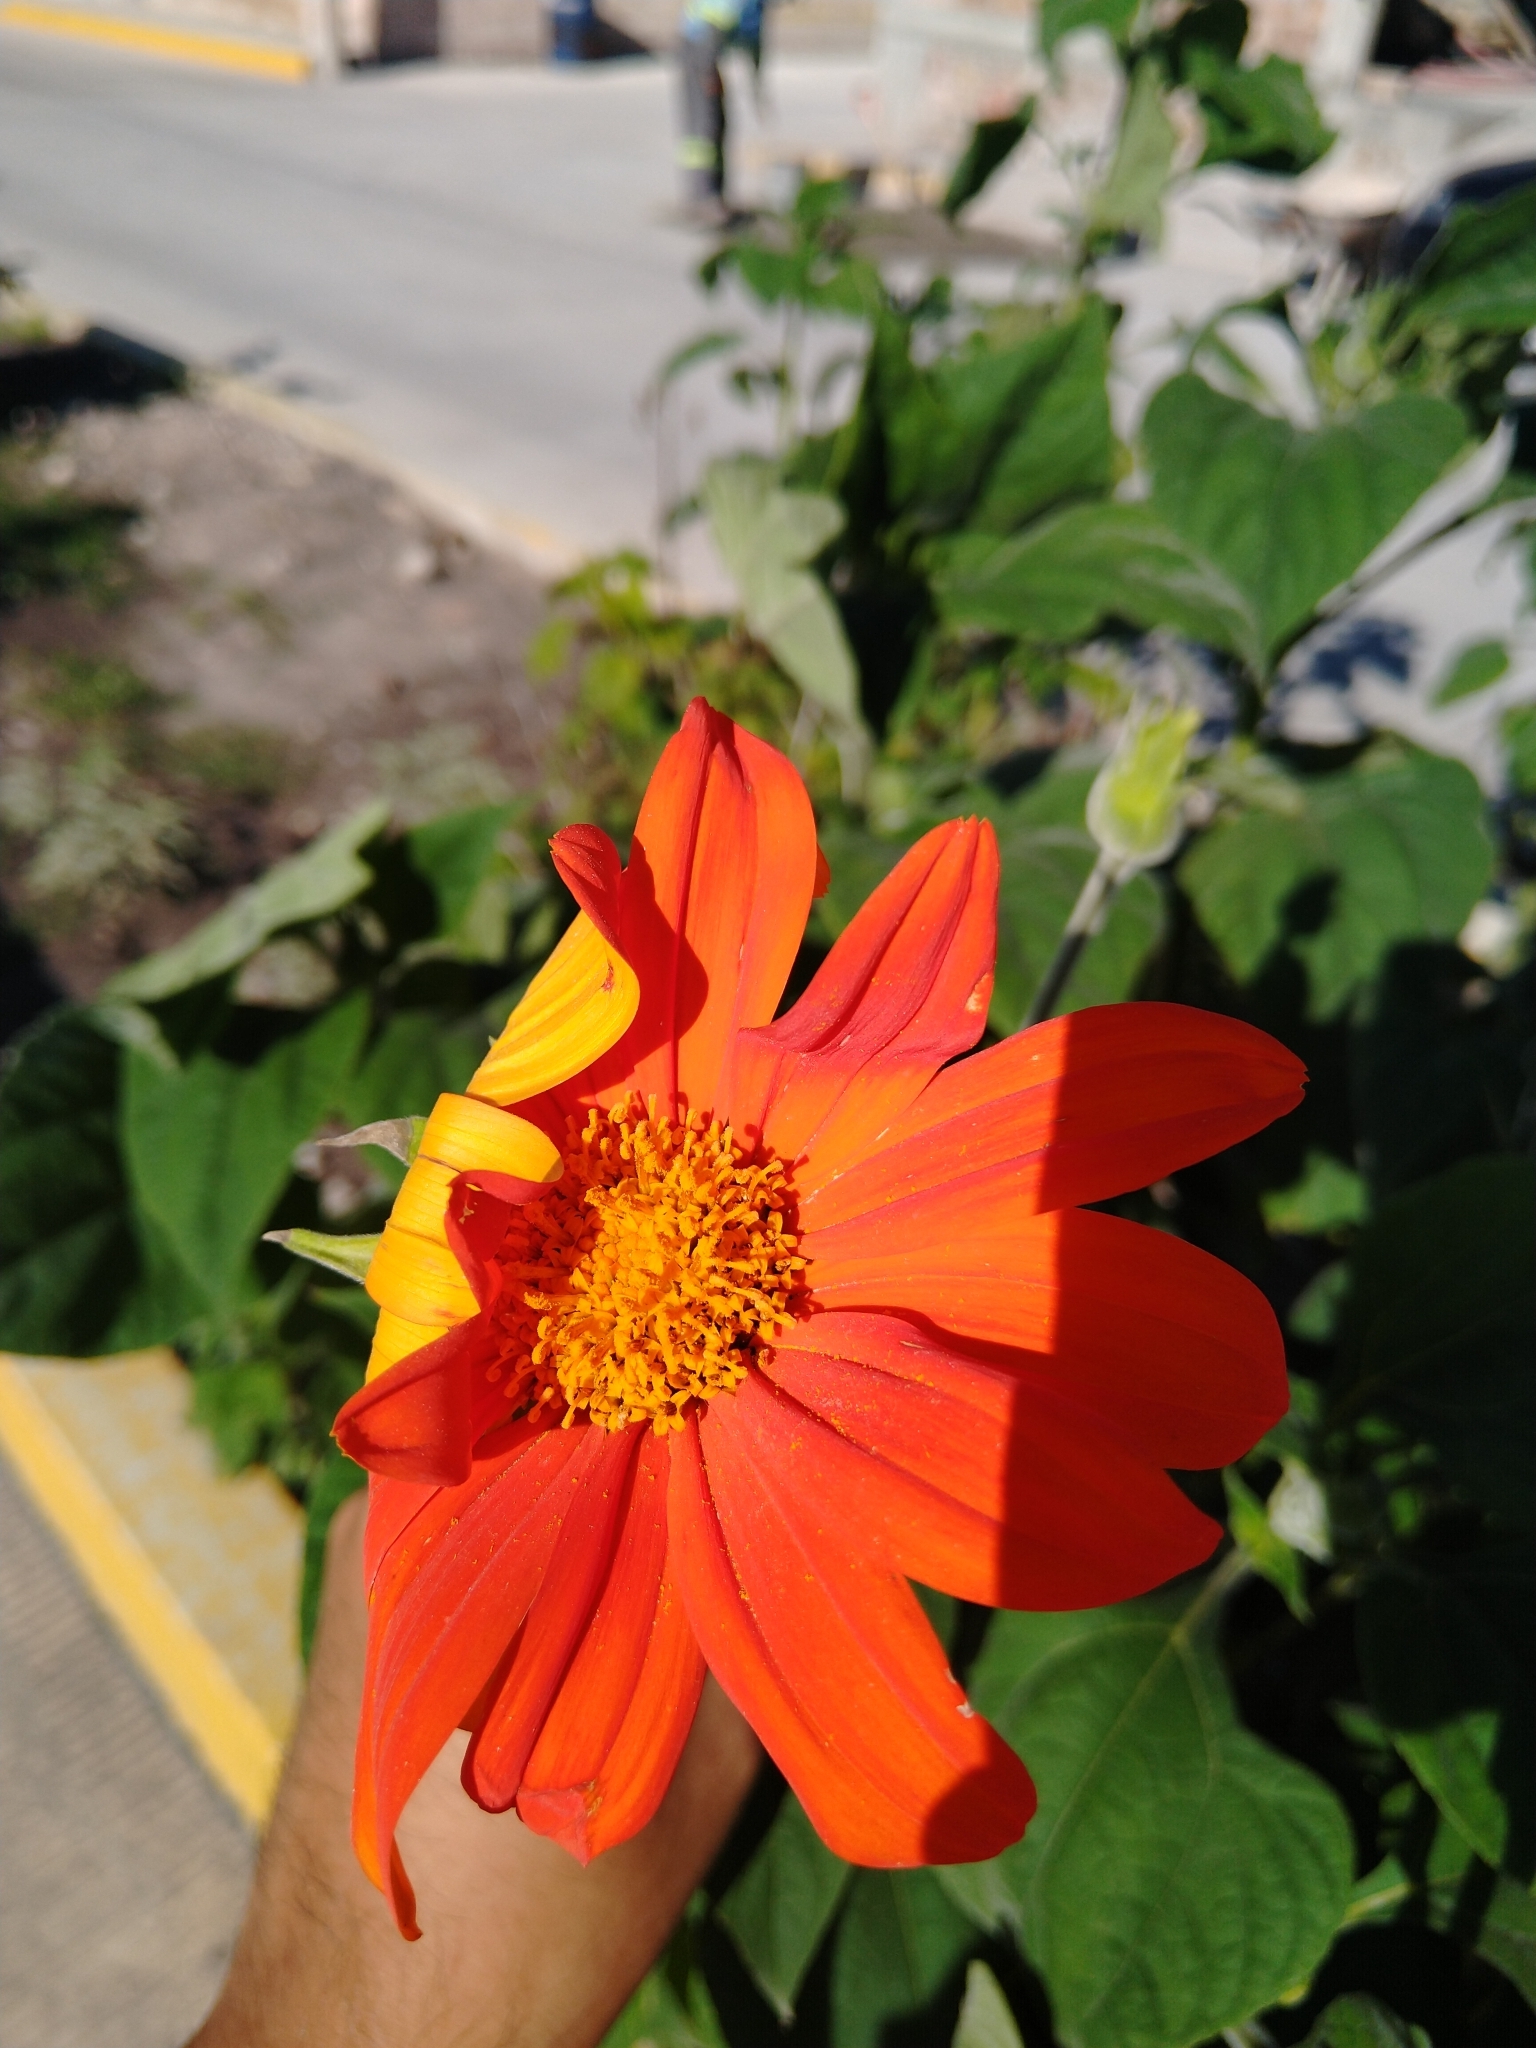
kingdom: Plantae
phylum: Tracheophyta
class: Magnoliopsida
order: Asterales
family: Asteraceae
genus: Tithonia
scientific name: Tithonia rotundifolia
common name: Sunflower
